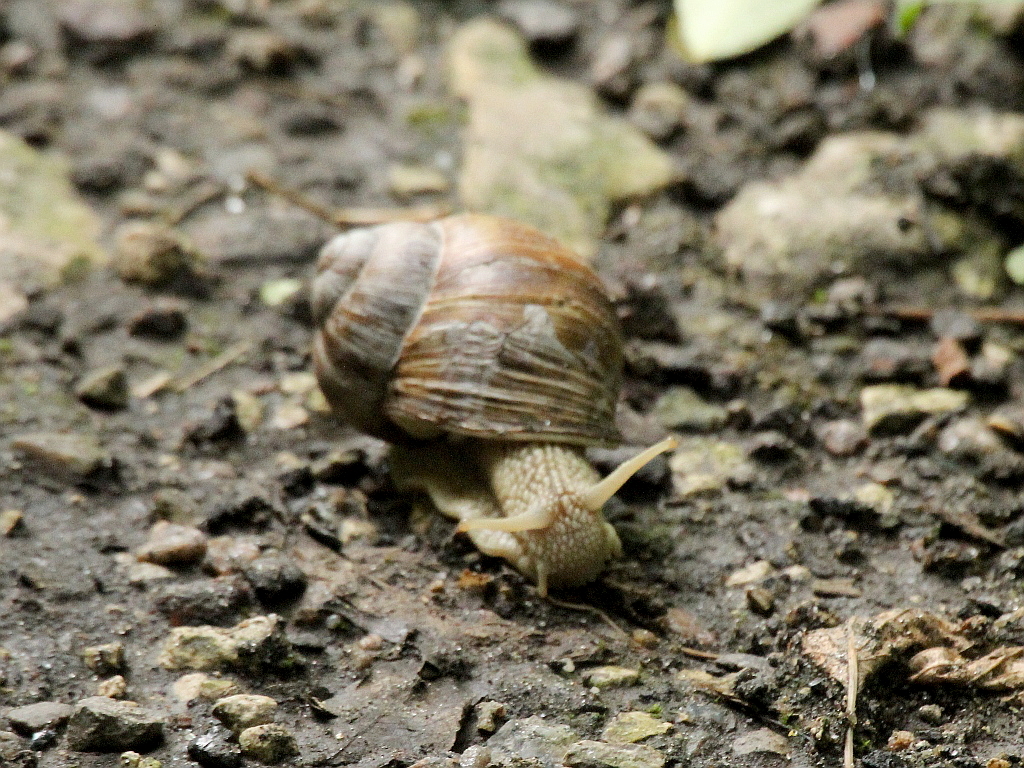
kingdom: Animalia
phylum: Mollusca
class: Gastropoda
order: Stylommatophora
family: Helicidae
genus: Helix
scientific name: Helix pomatia
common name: Roman snail
